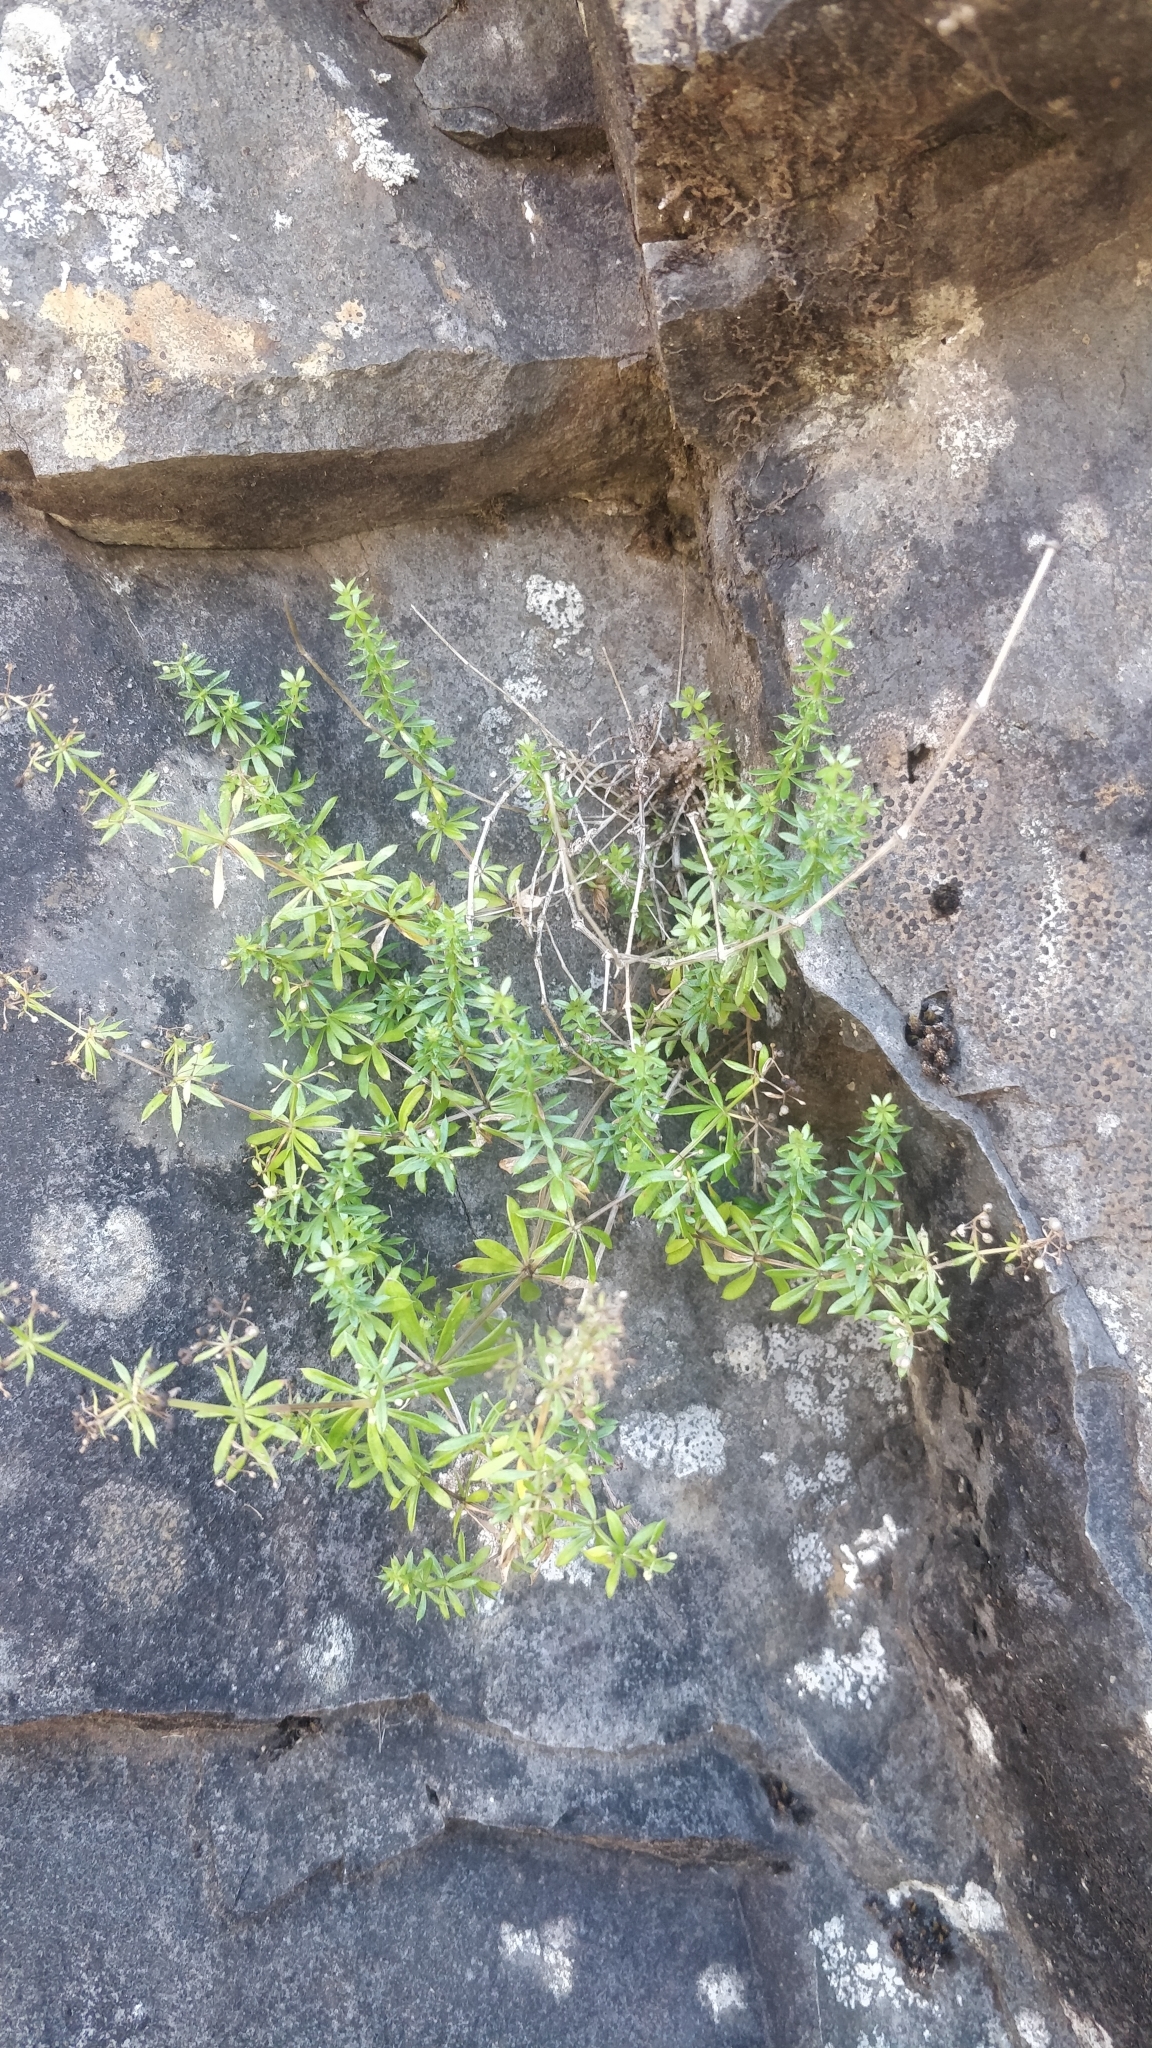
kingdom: Plantae
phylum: Tracheophyta
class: Magnoliopsida
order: Gentianales
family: Rubiaceae
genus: Galium
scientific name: Galium productum
